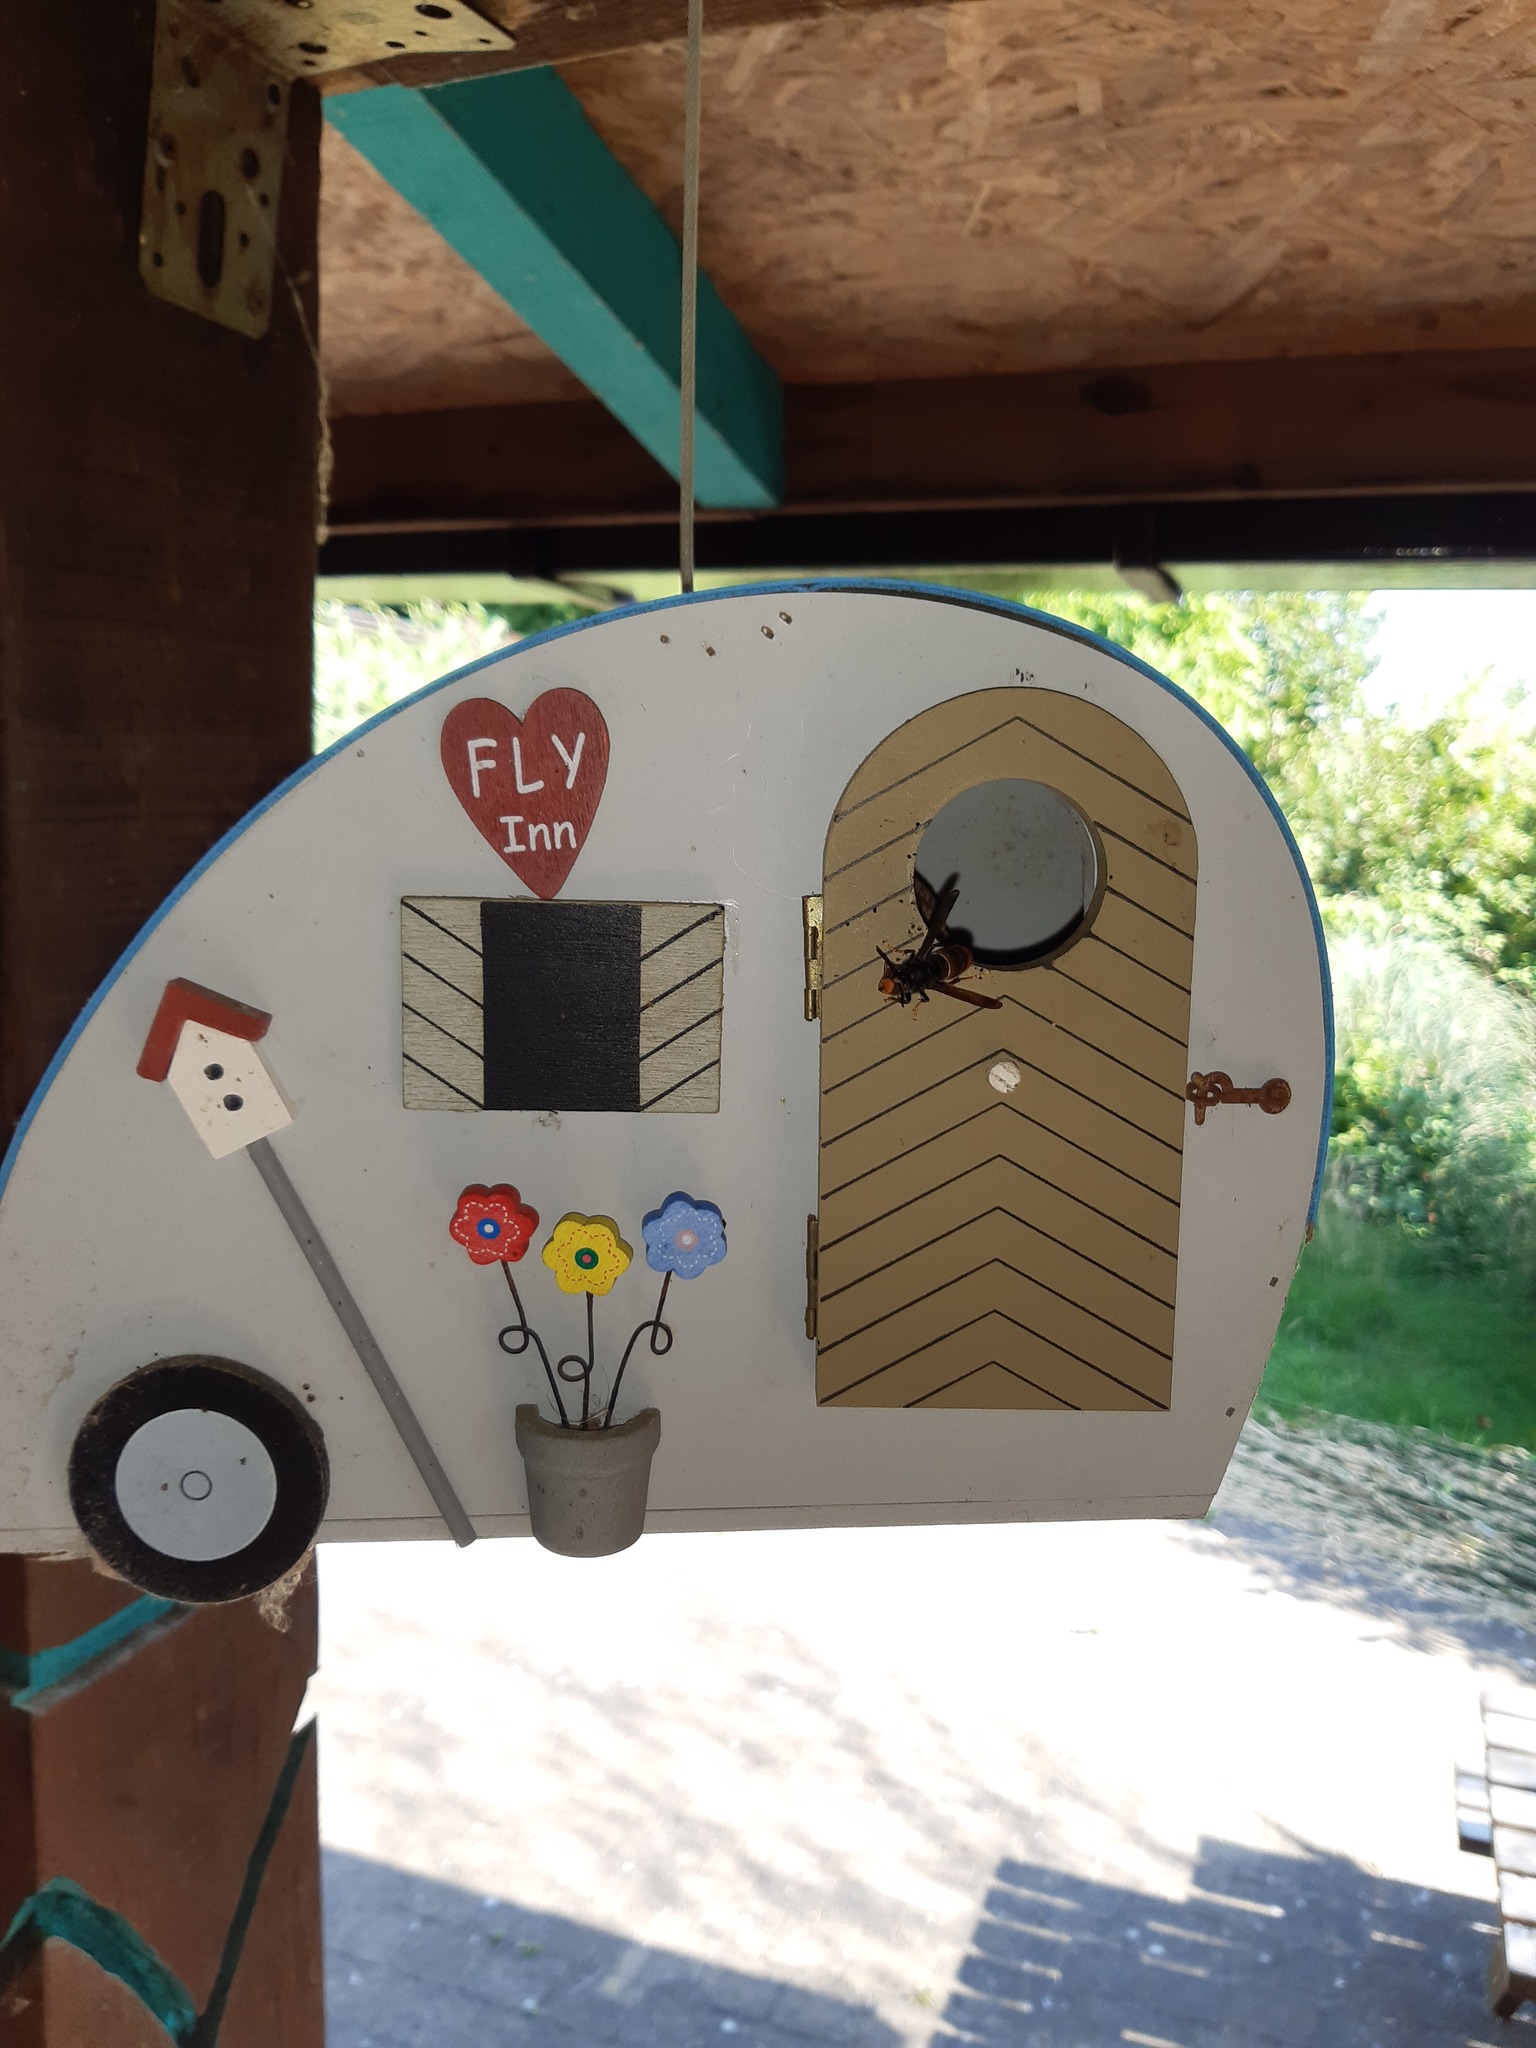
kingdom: Animalia
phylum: Arthropoda
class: Insecta
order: Hymenoptera
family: Vespidae
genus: Vespa
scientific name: Vespa velutina
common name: Asian hornet
